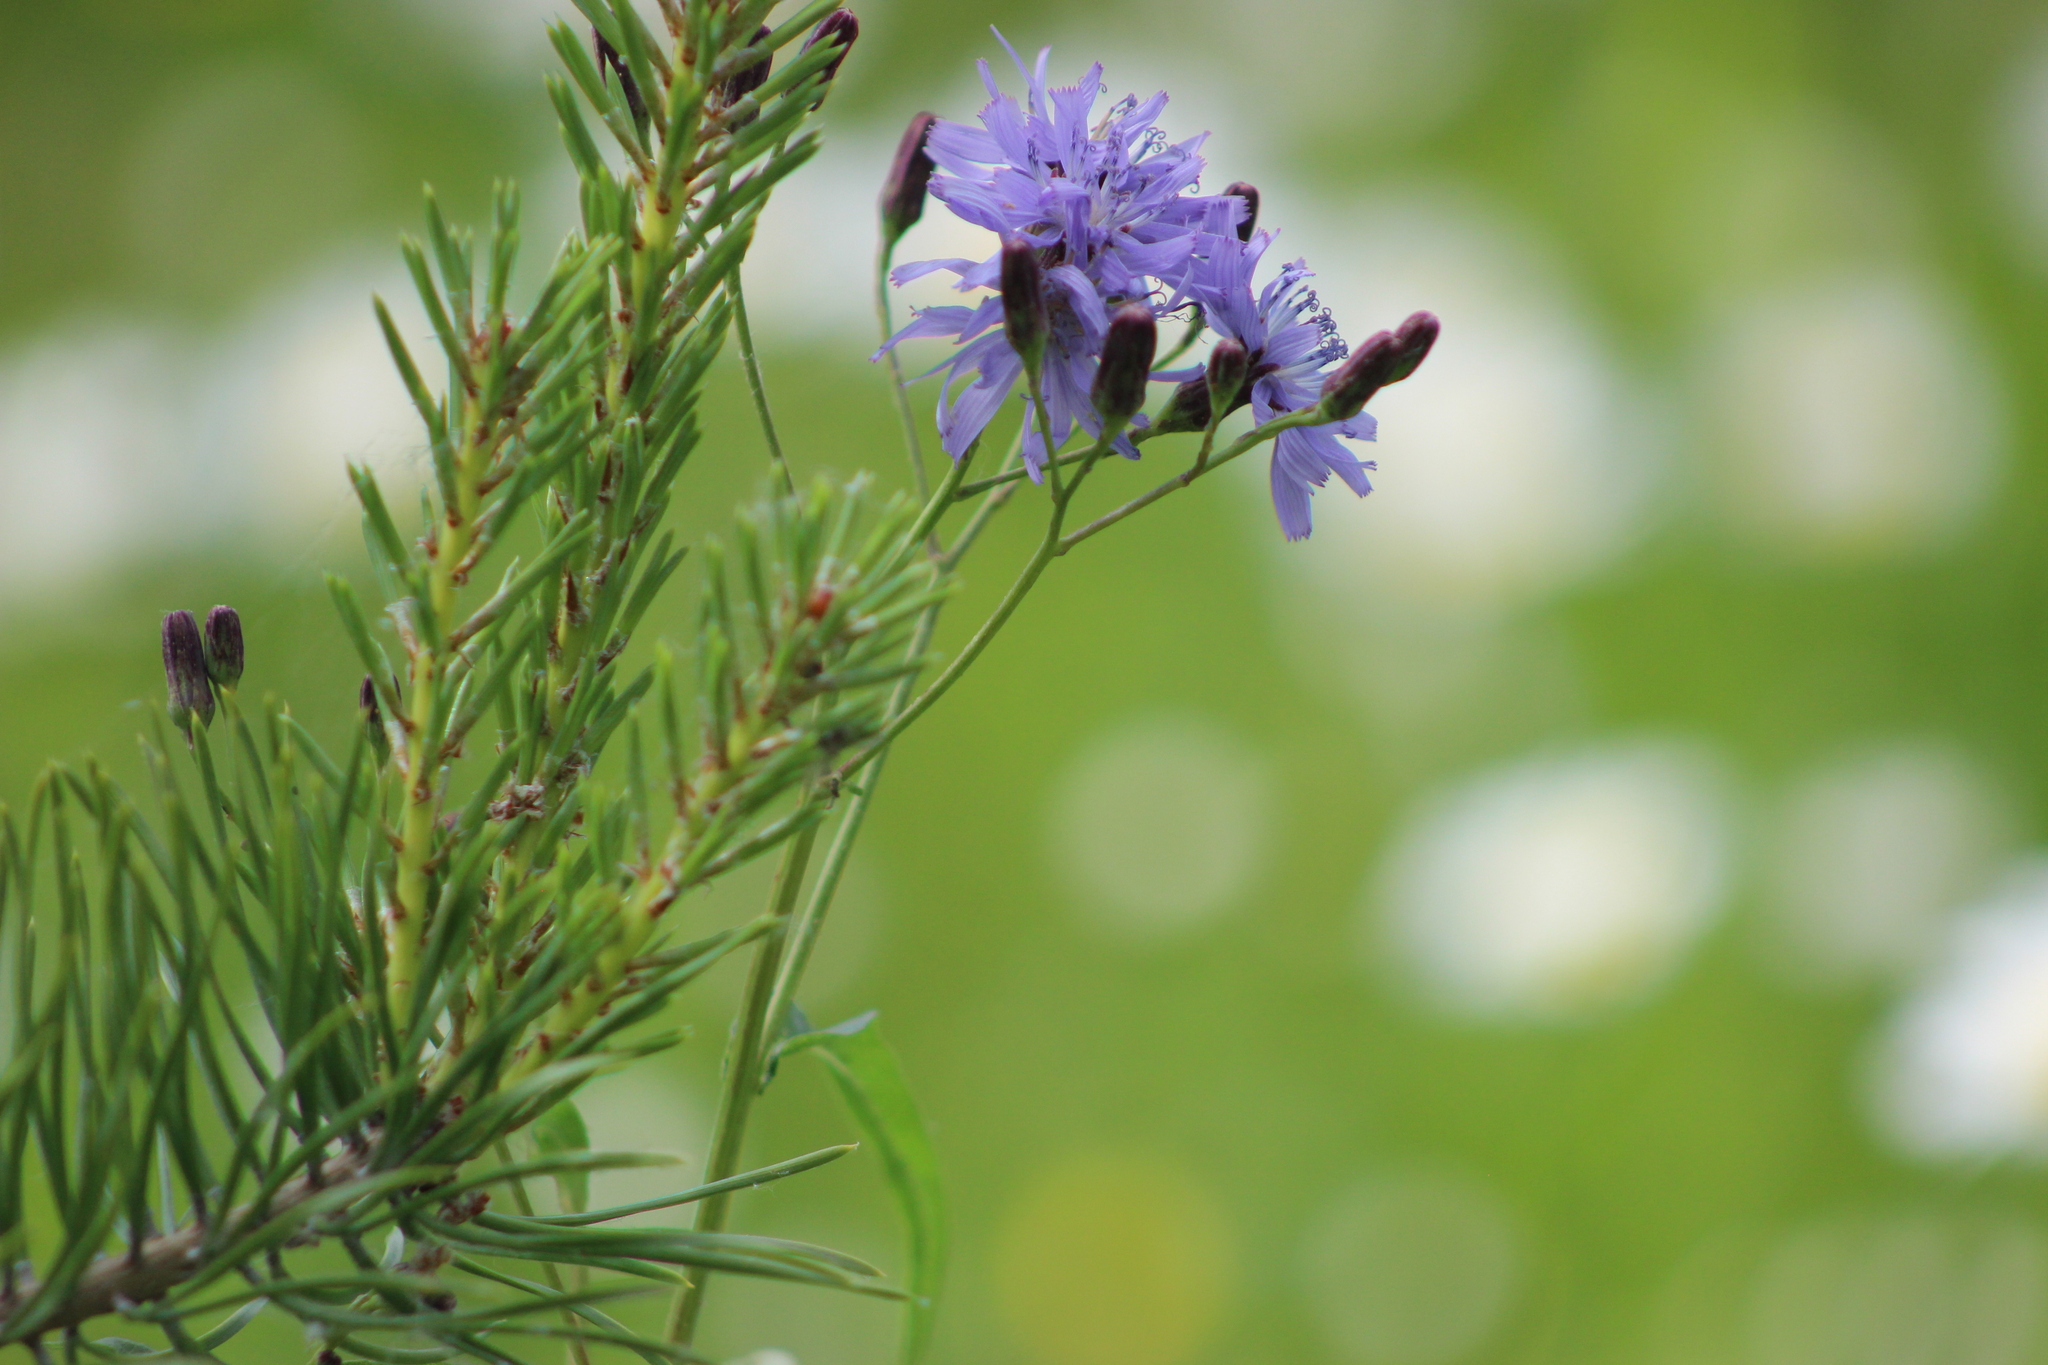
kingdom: Plantae
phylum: Tracheophyta
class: Magnoliopsida
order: Asterales
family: Asteraceae
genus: Lactuca
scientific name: Lactuca sibirica
